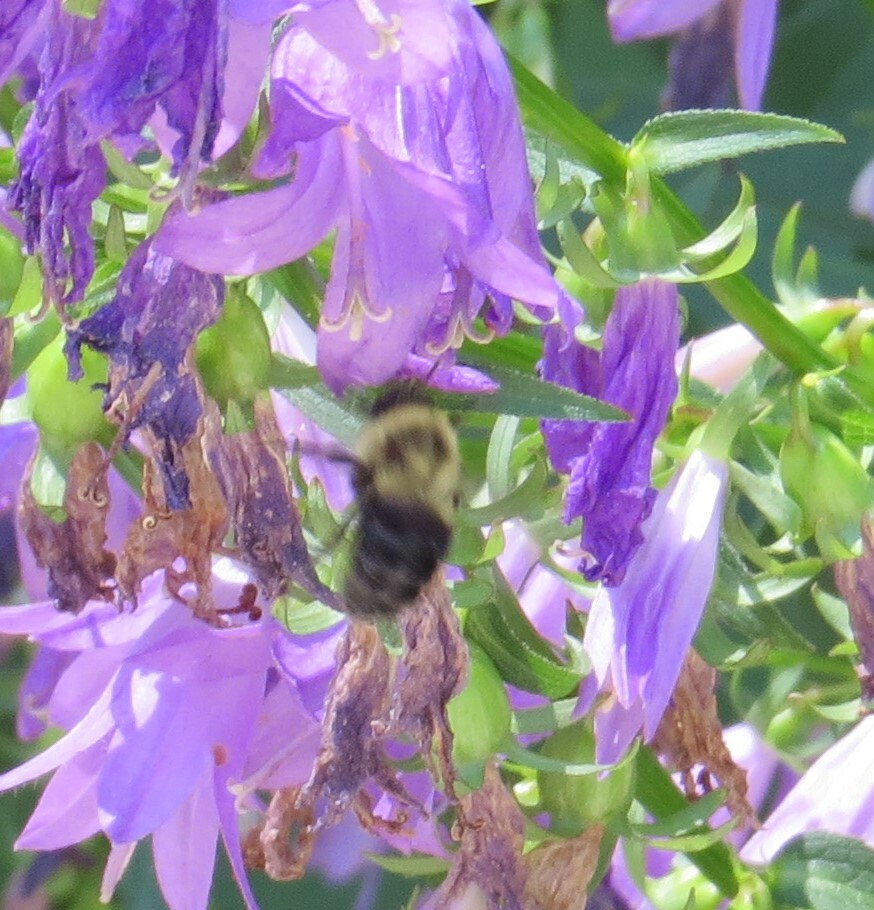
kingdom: Animalia
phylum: Arthropoda
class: Insecta
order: Hymenoptera
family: Apidae
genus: Bombus
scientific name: Bombus impatiens
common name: Common eastern bumble bee
